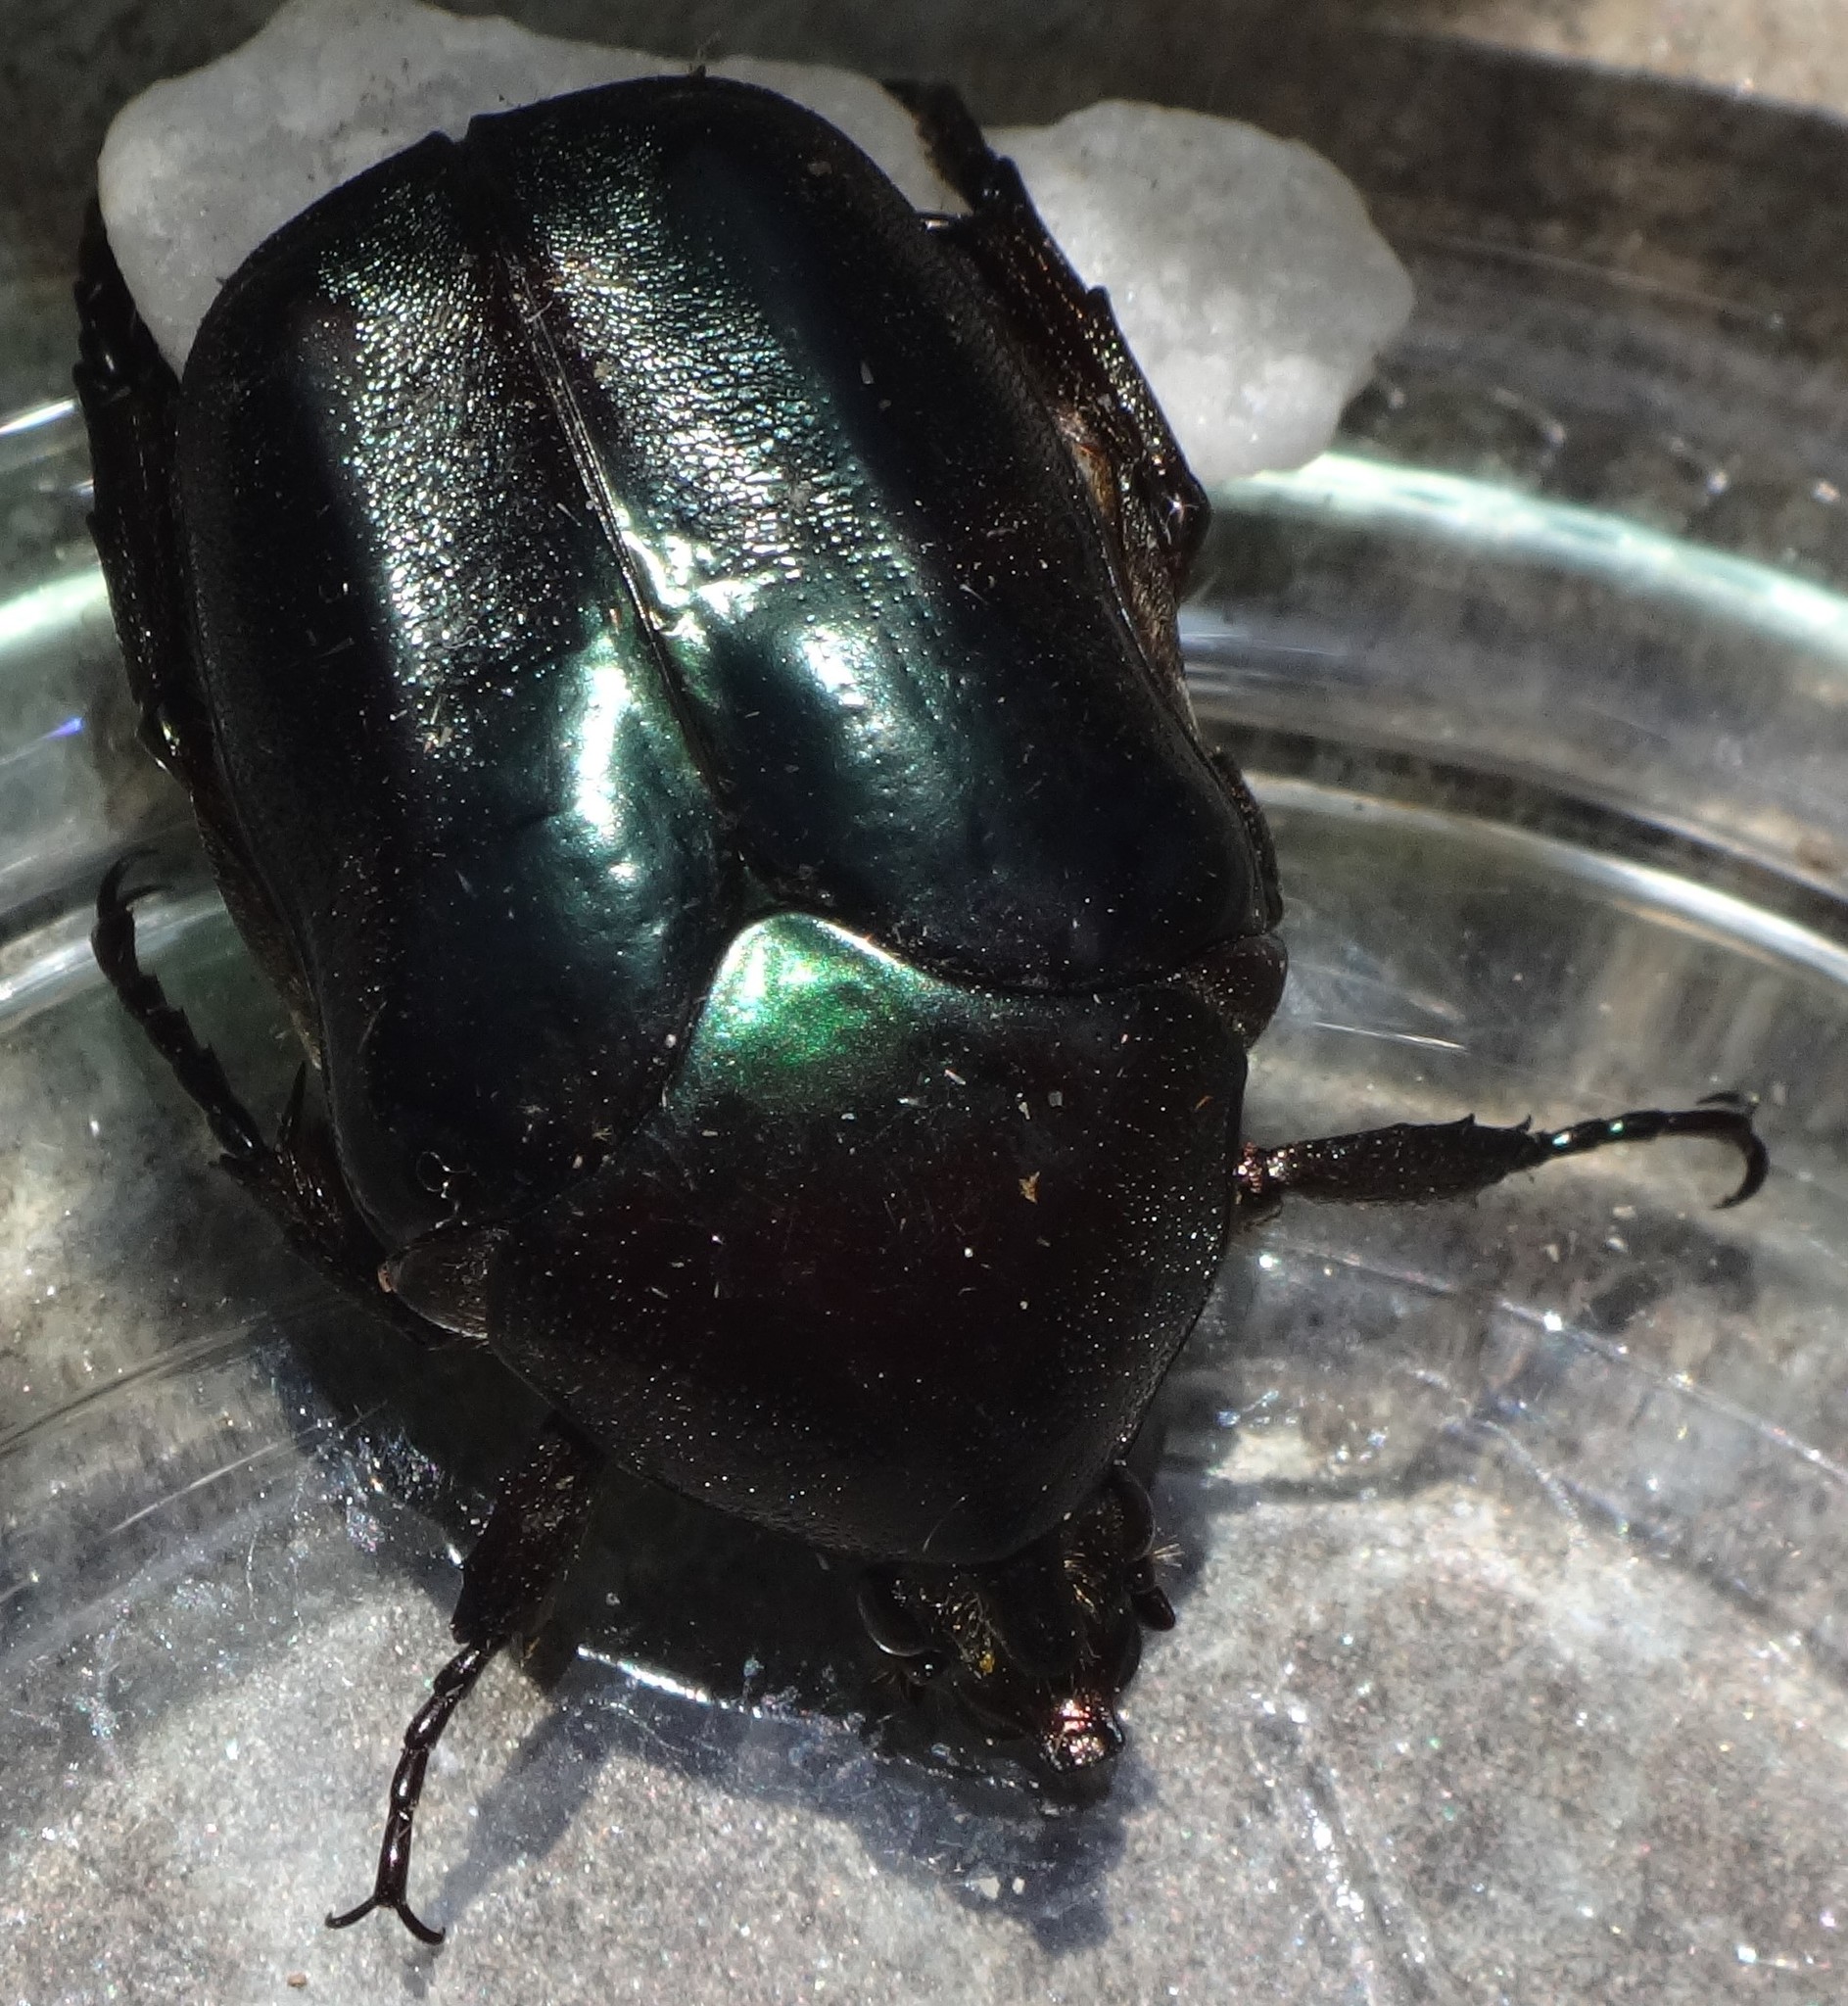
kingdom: Animalia
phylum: Arthropoda
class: Insecta
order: Coleoptera
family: Scarabaeidae
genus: Allorrhina
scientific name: Allorrhina scabriuscula
